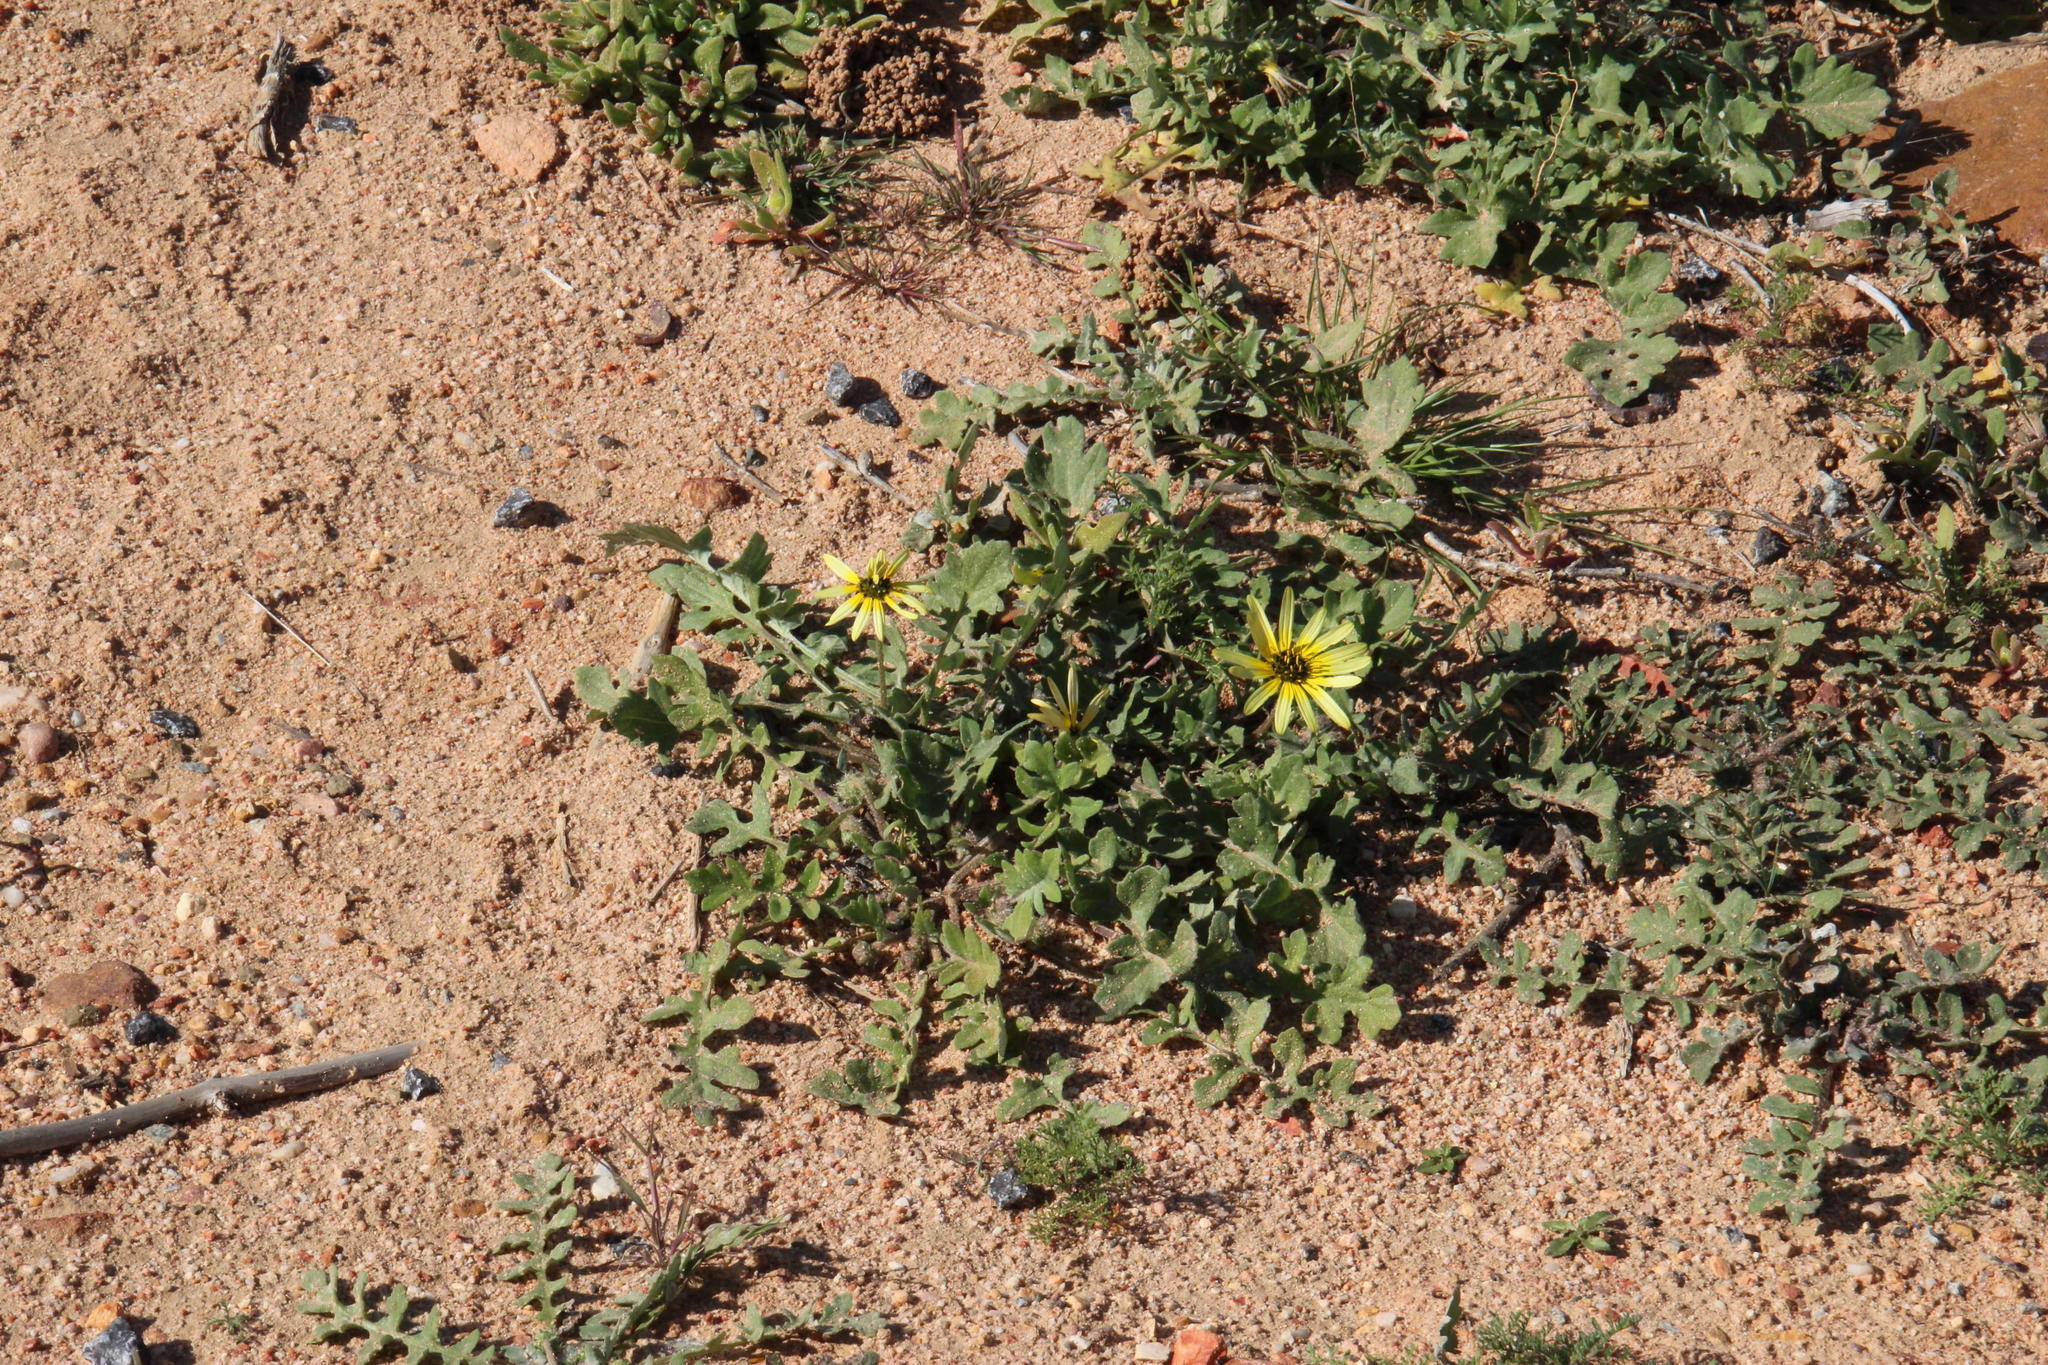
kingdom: Plantae
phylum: Tracheophyta
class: Magnoliopsida
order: Asterales
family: Asteraceae
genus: Arctotheca
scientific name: Arctotheca calendula
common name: Capeweed
